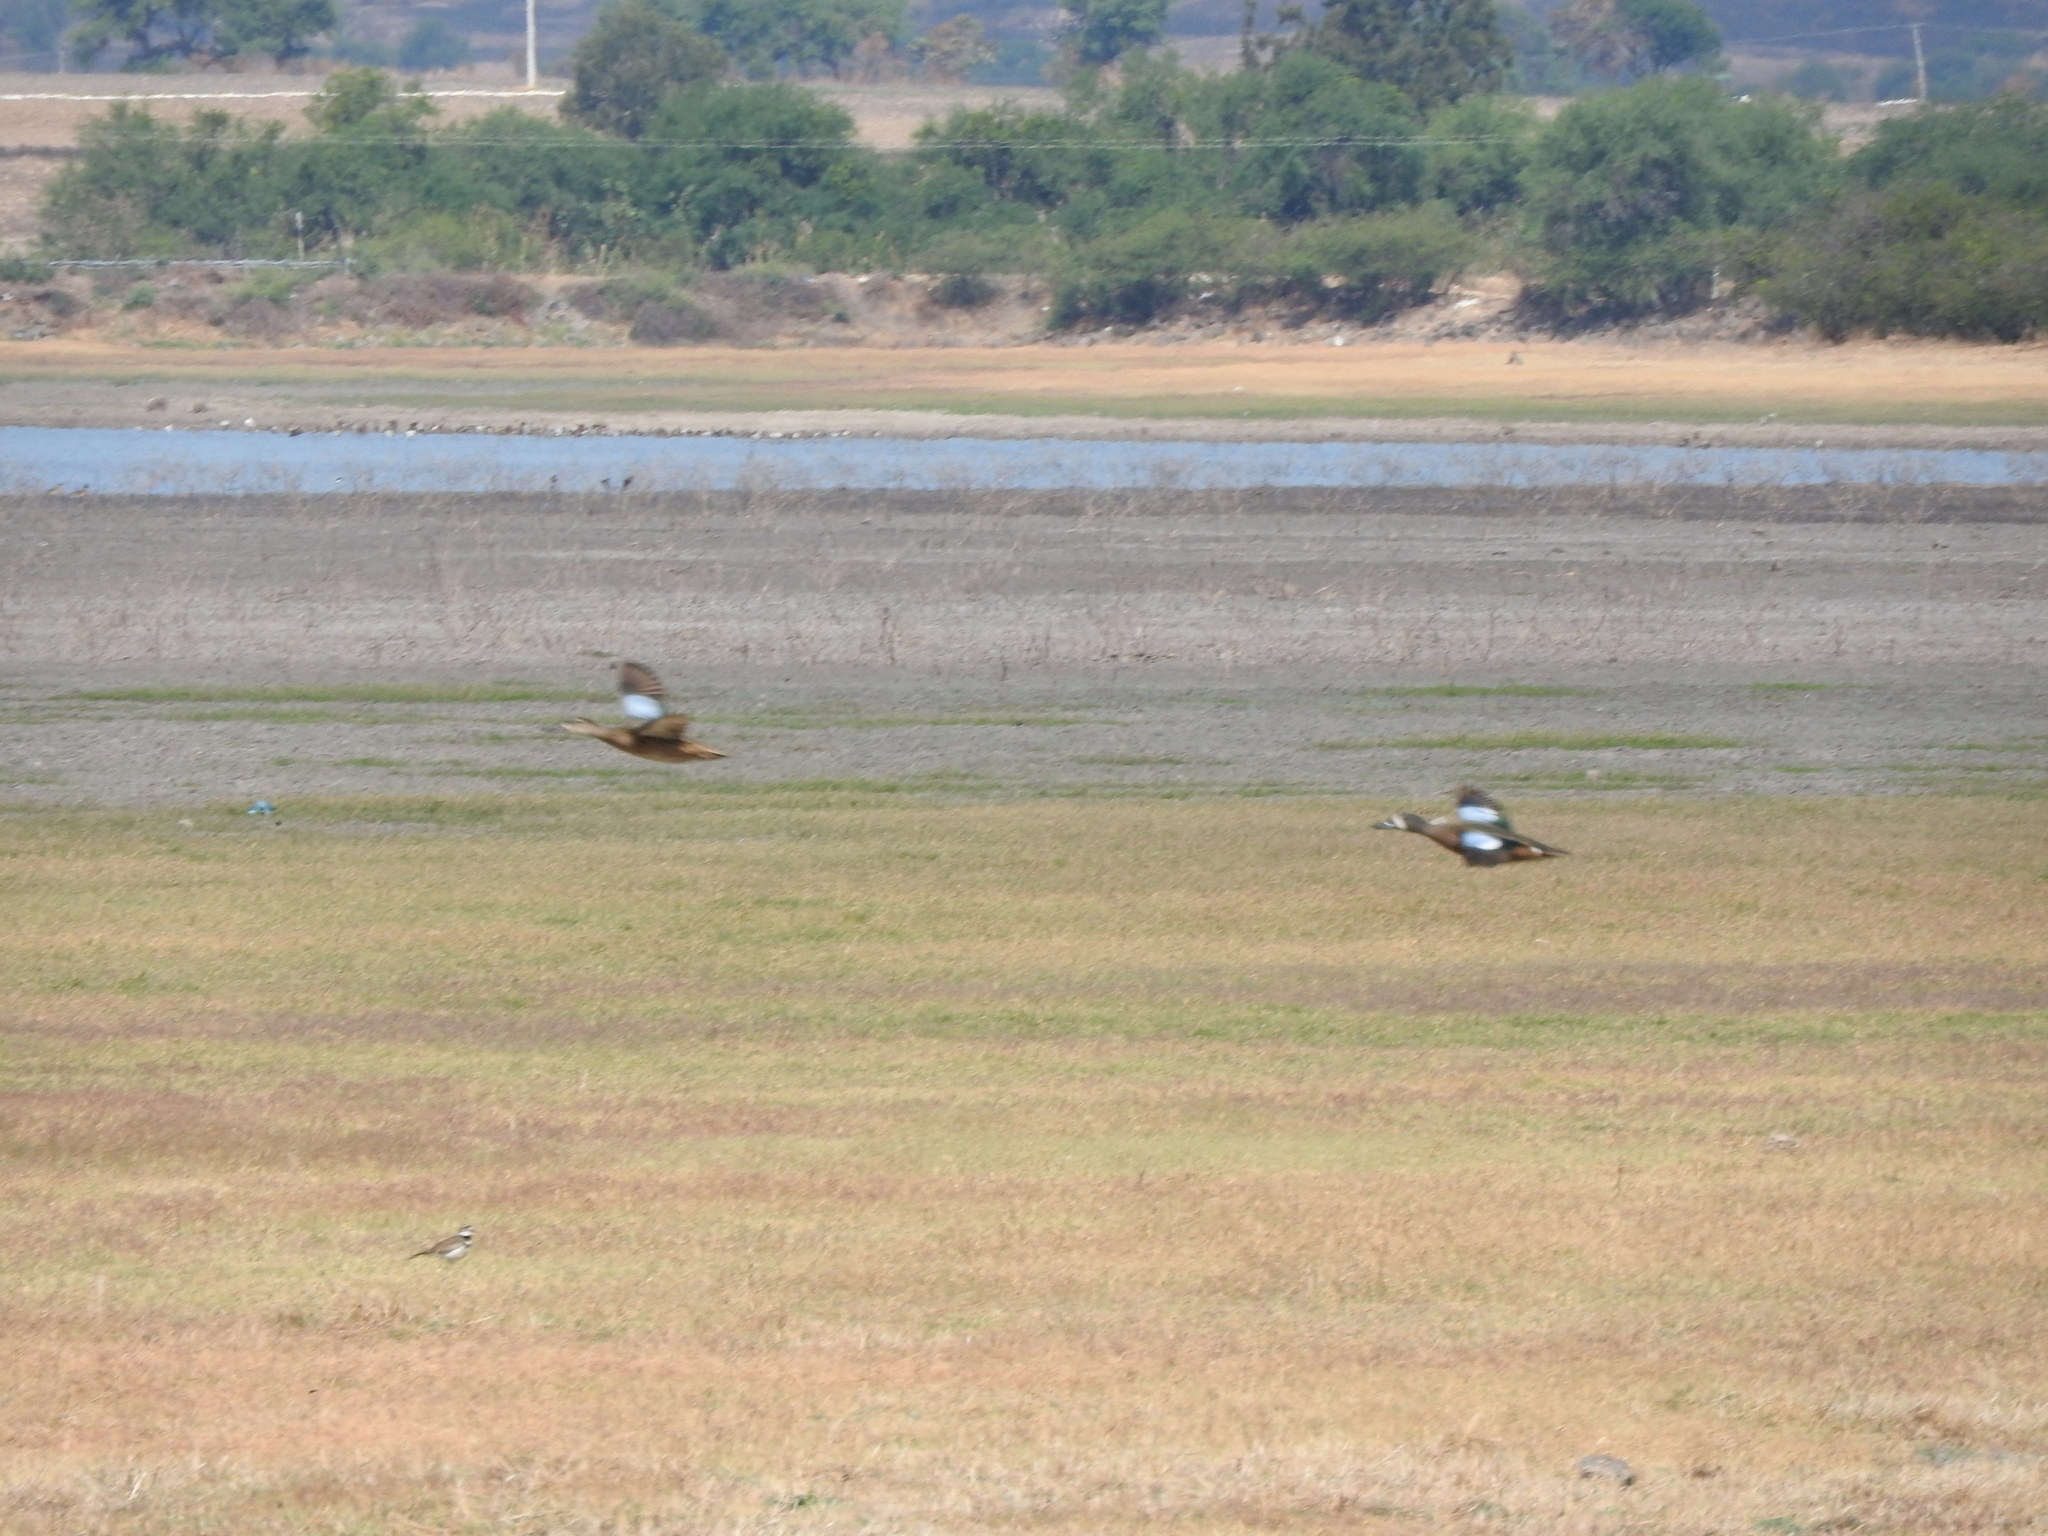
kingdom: Animalia
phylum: Chordata
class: Aves
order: Anseriformes
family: Anatidae
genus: Spatula
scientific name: Spatula discors
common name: Blue-winged teal
